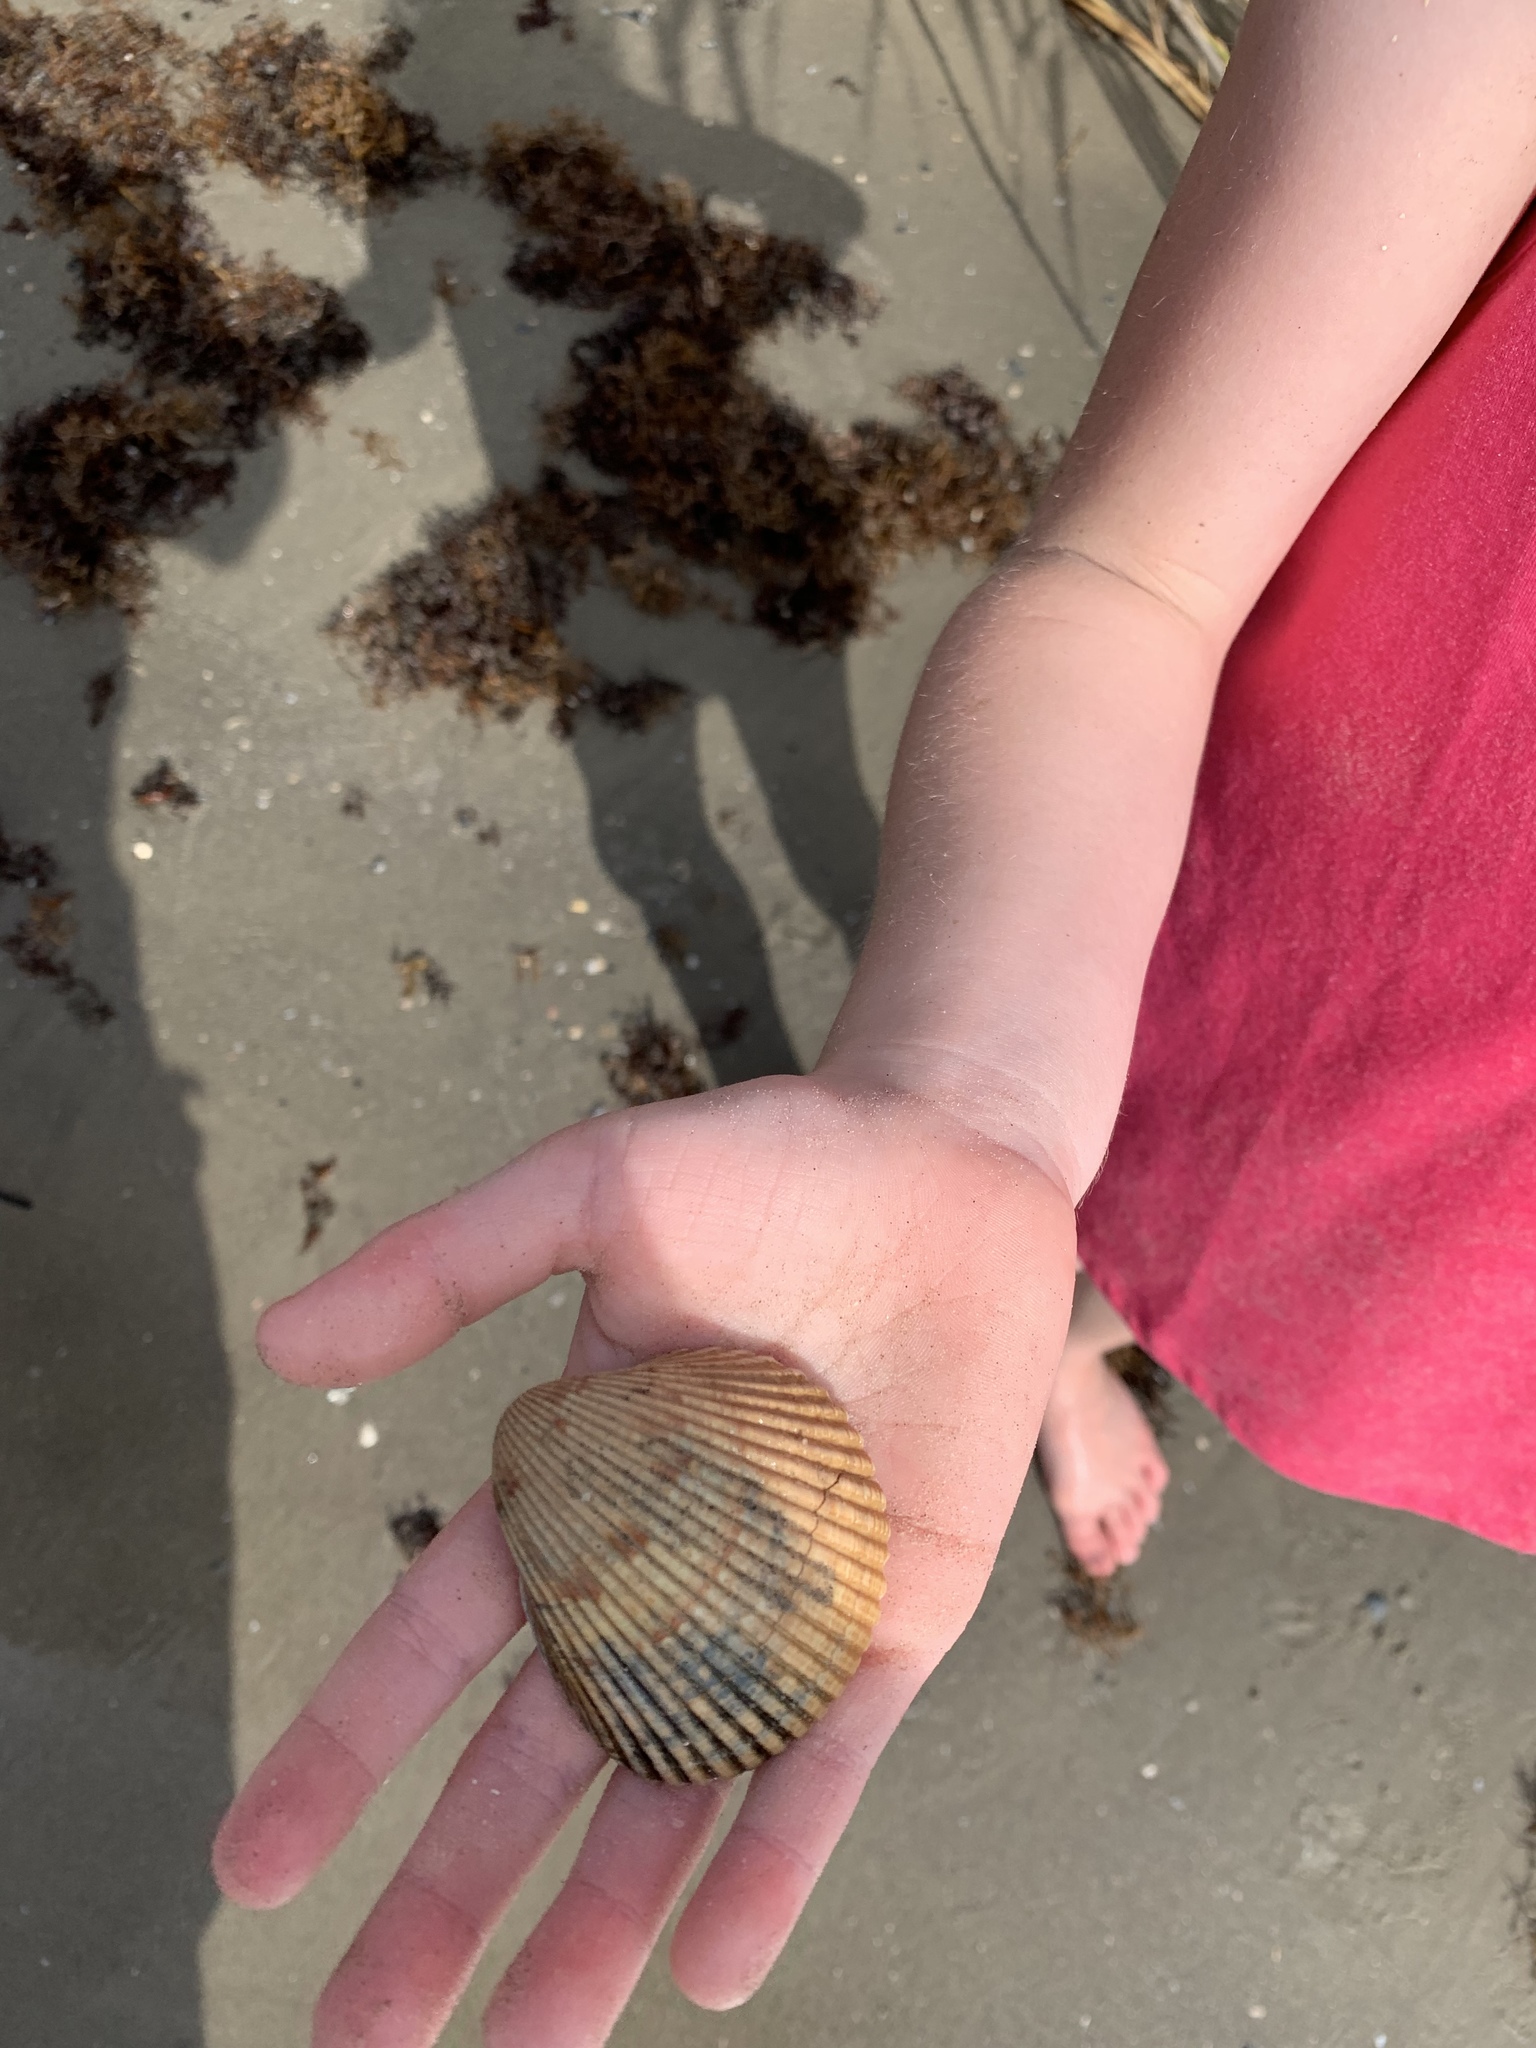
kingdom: Animalia
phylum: Mollusca
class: Bivalvia
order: Cardiida
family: Cardiidae
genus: Dinocardium
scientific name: Dinocardium robustum
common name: Atlantic giant cockle
